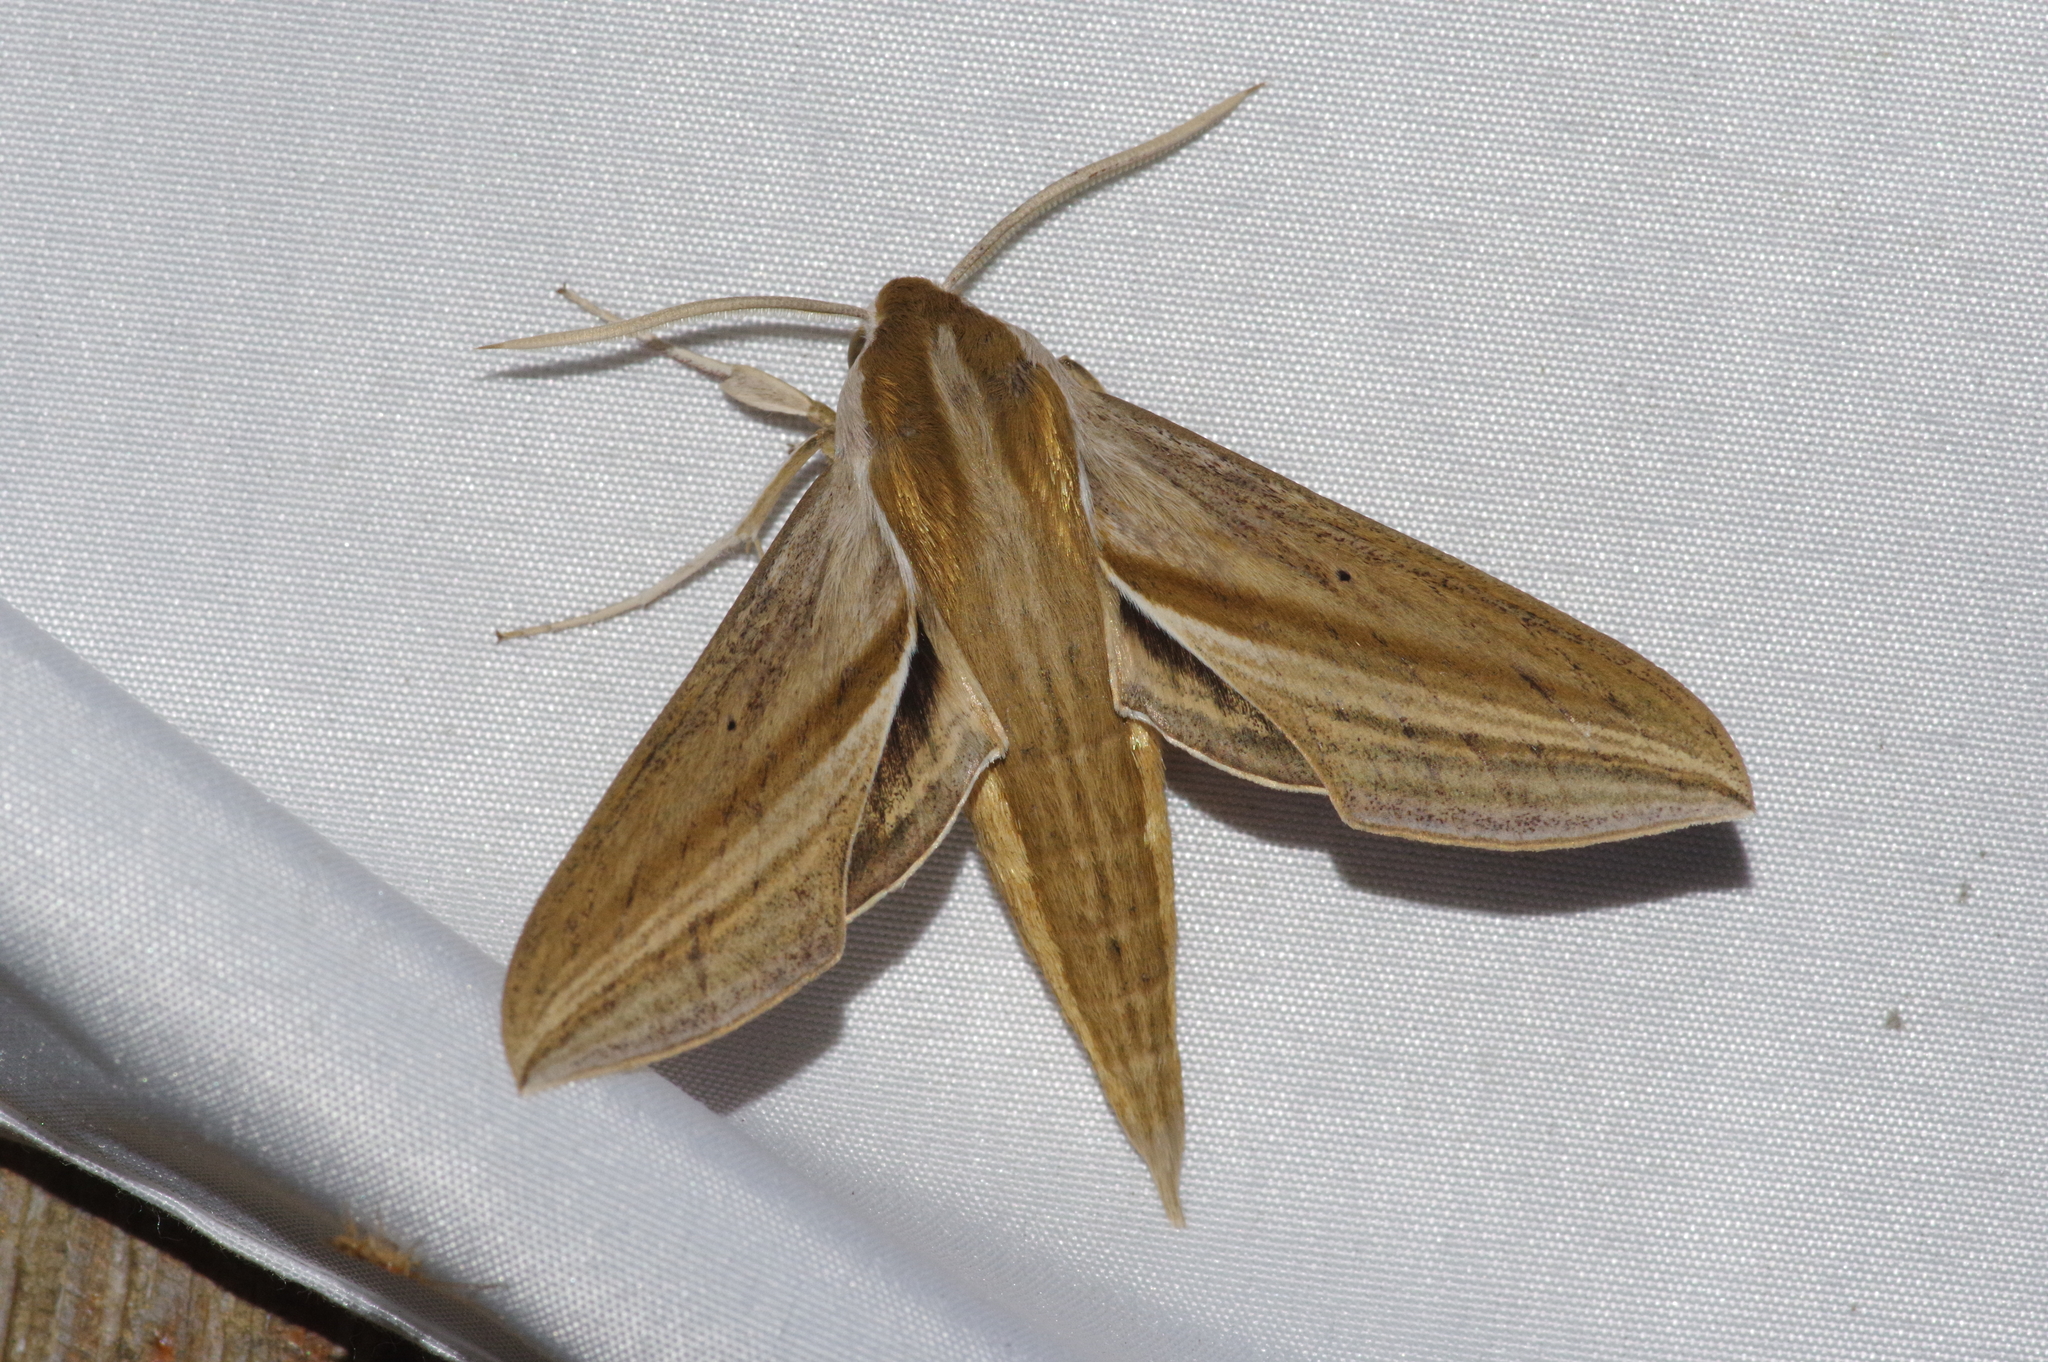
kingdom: Animalia
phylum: Arthropoda
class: Insecta
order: Lepidoptera
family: Sphingidae
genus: Theretra
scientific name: Theretra japonica
